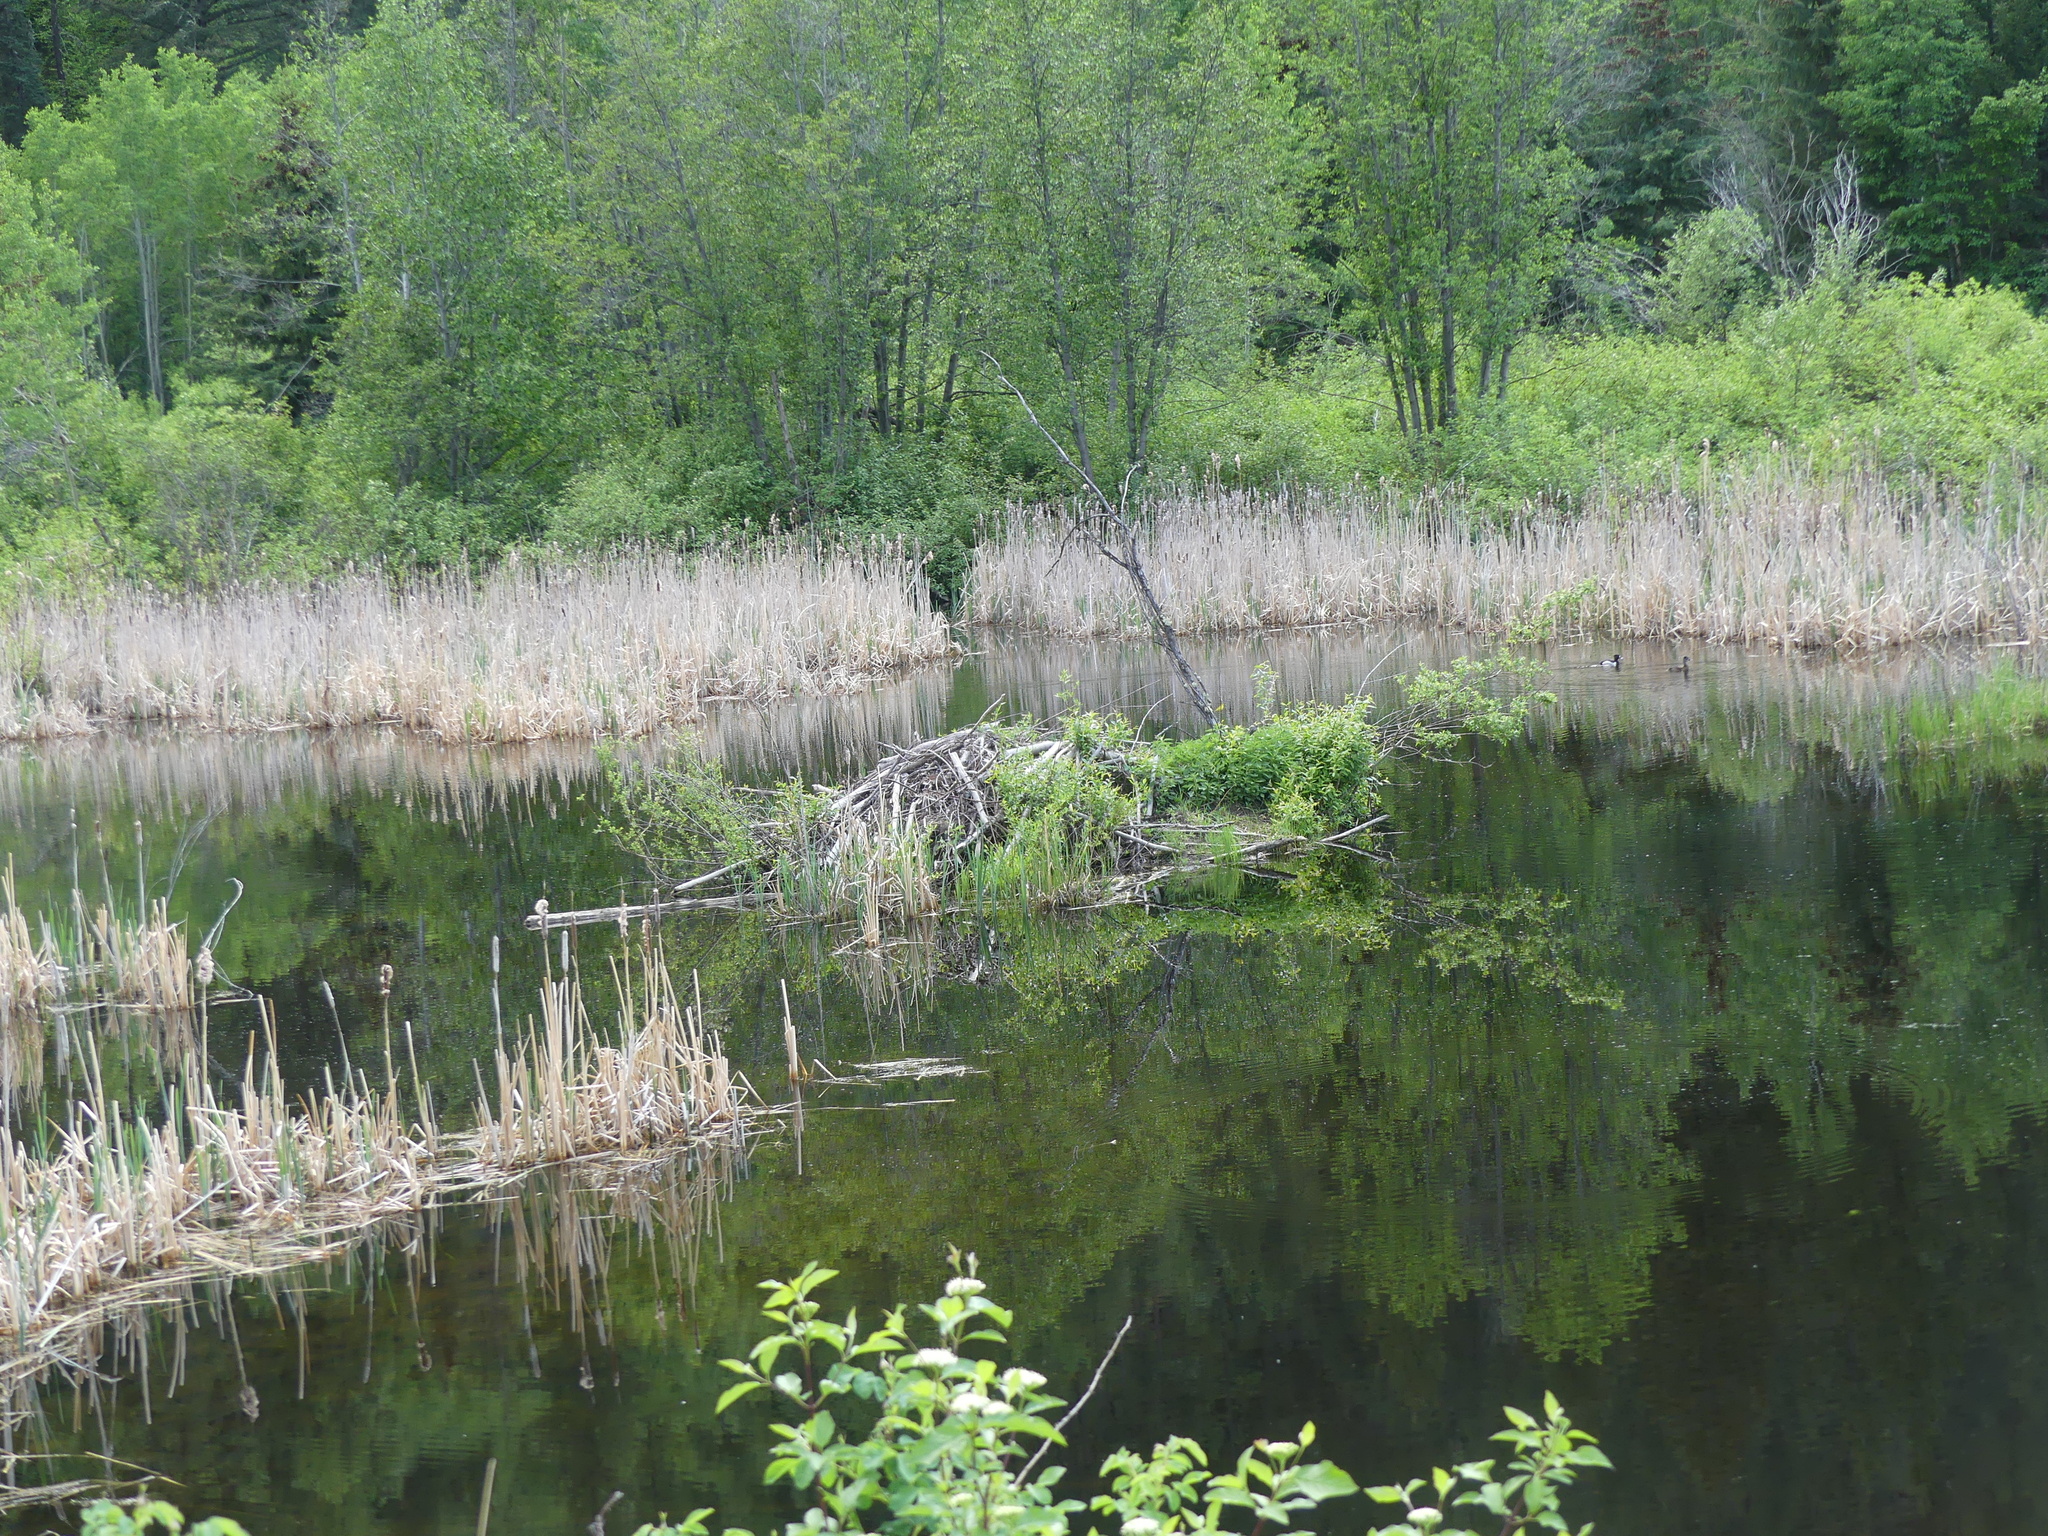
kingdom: Animalia
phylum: Chordata
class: Mammalia
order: Rodentia
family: Castoridae
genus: Castor
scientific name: Castor canadensis
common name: American beaver
